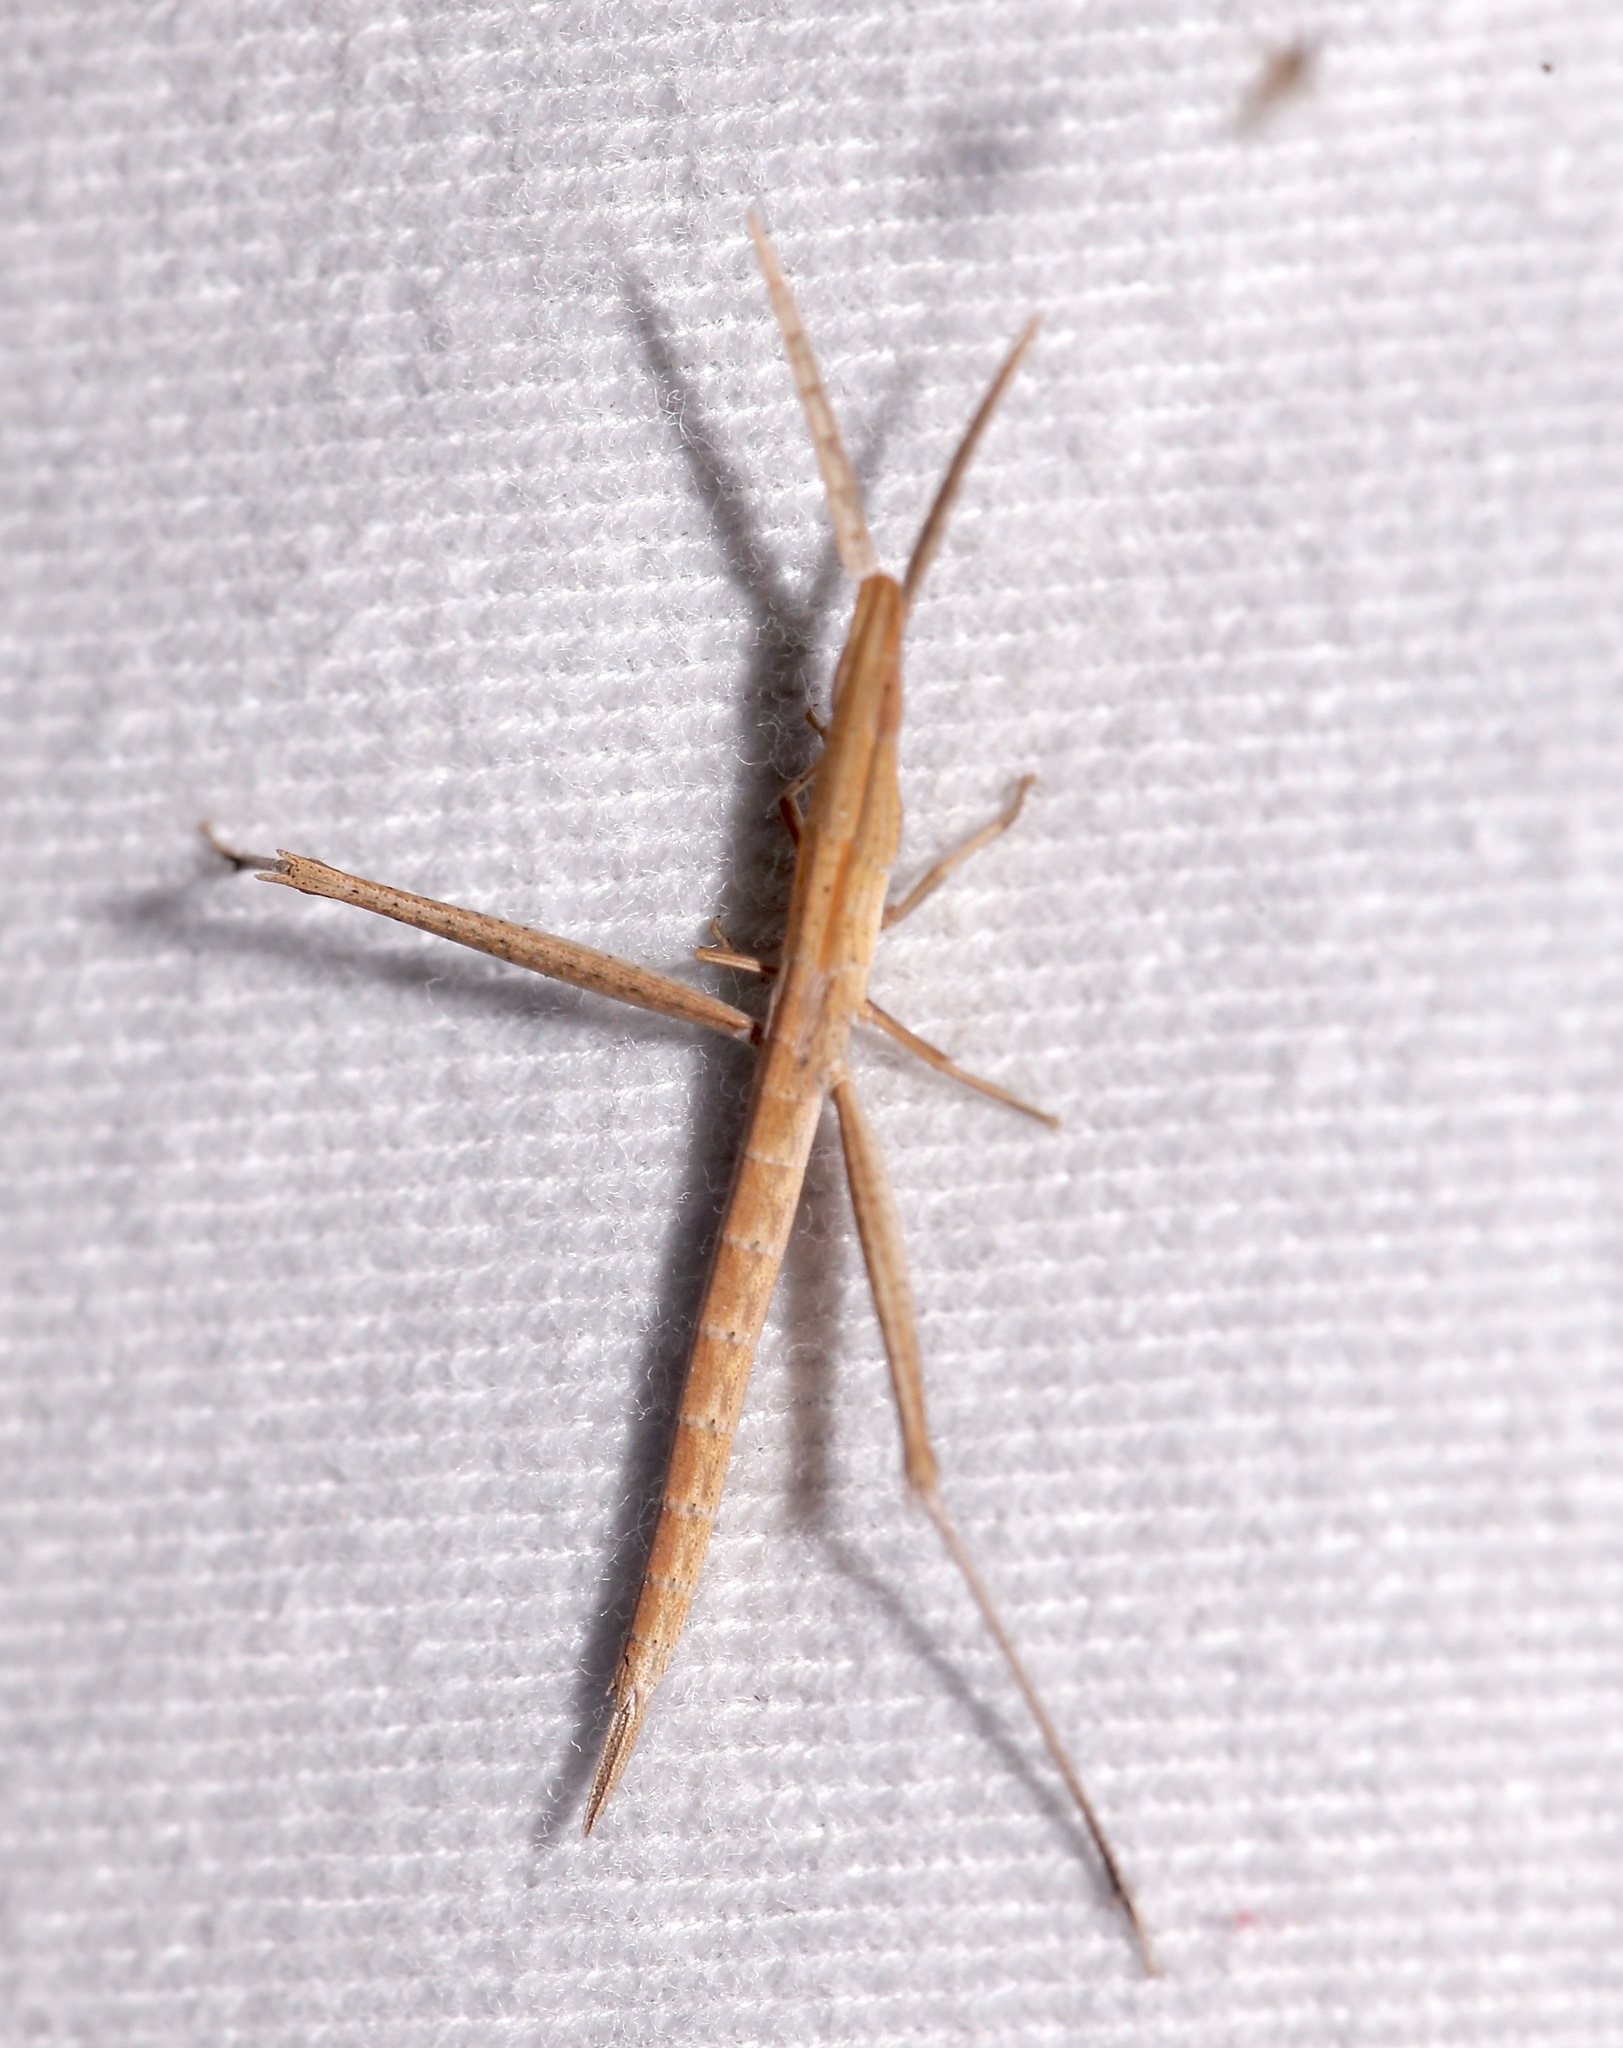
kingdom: Animalia
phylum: Arthropoda
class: Insecta
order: Orthoptera
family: Acrididae
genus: Achurum
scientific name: Achurum carinatum
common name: Long-headed toothpick grasshopper
